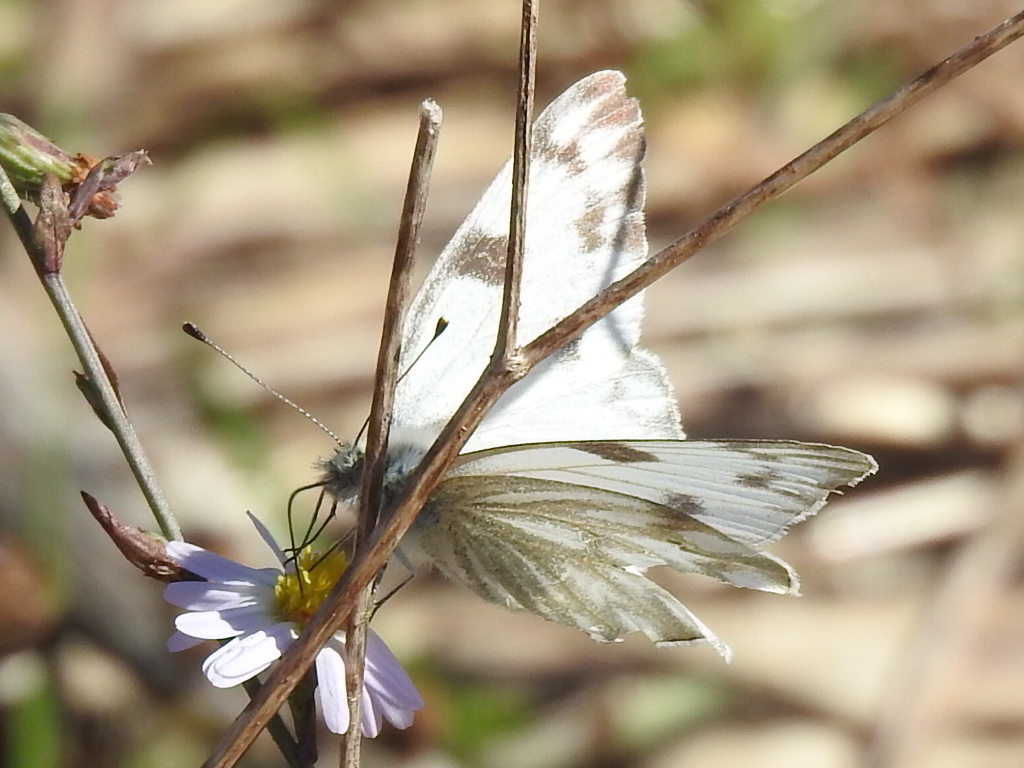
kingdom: Animalia
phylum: Arthropoda
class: Insecta
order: Lepidoptera
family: Pieridae
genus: Pontia
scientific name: Pontia protodice
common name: Checkered white
